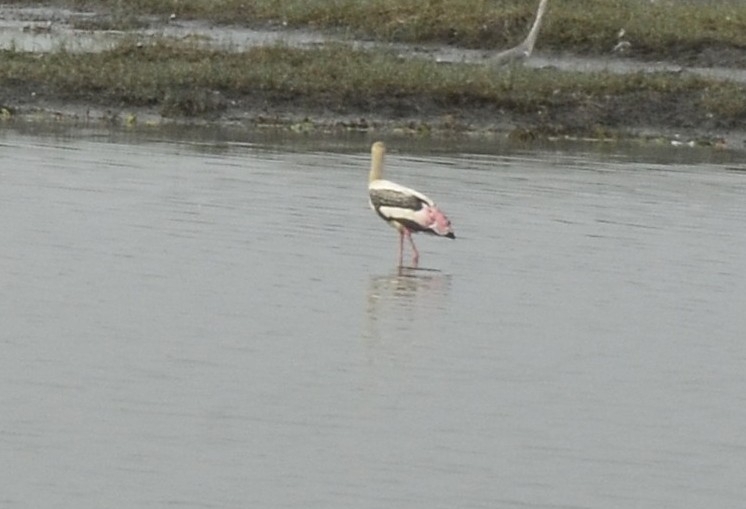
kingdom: Animalia
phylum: Chordata
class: Aves
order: Ciconiiformes
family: Ciconiidae
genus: Mycteria
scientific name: Mycteria leucocephala
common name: Painted stork
